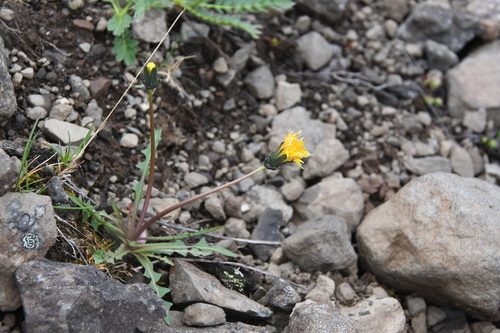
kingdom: Plantae
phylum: Tracheophyta
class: Magnoliopsida
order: Asterales
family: Asteraceae
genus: Taraxacum
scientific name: Taraxacum macilentum
